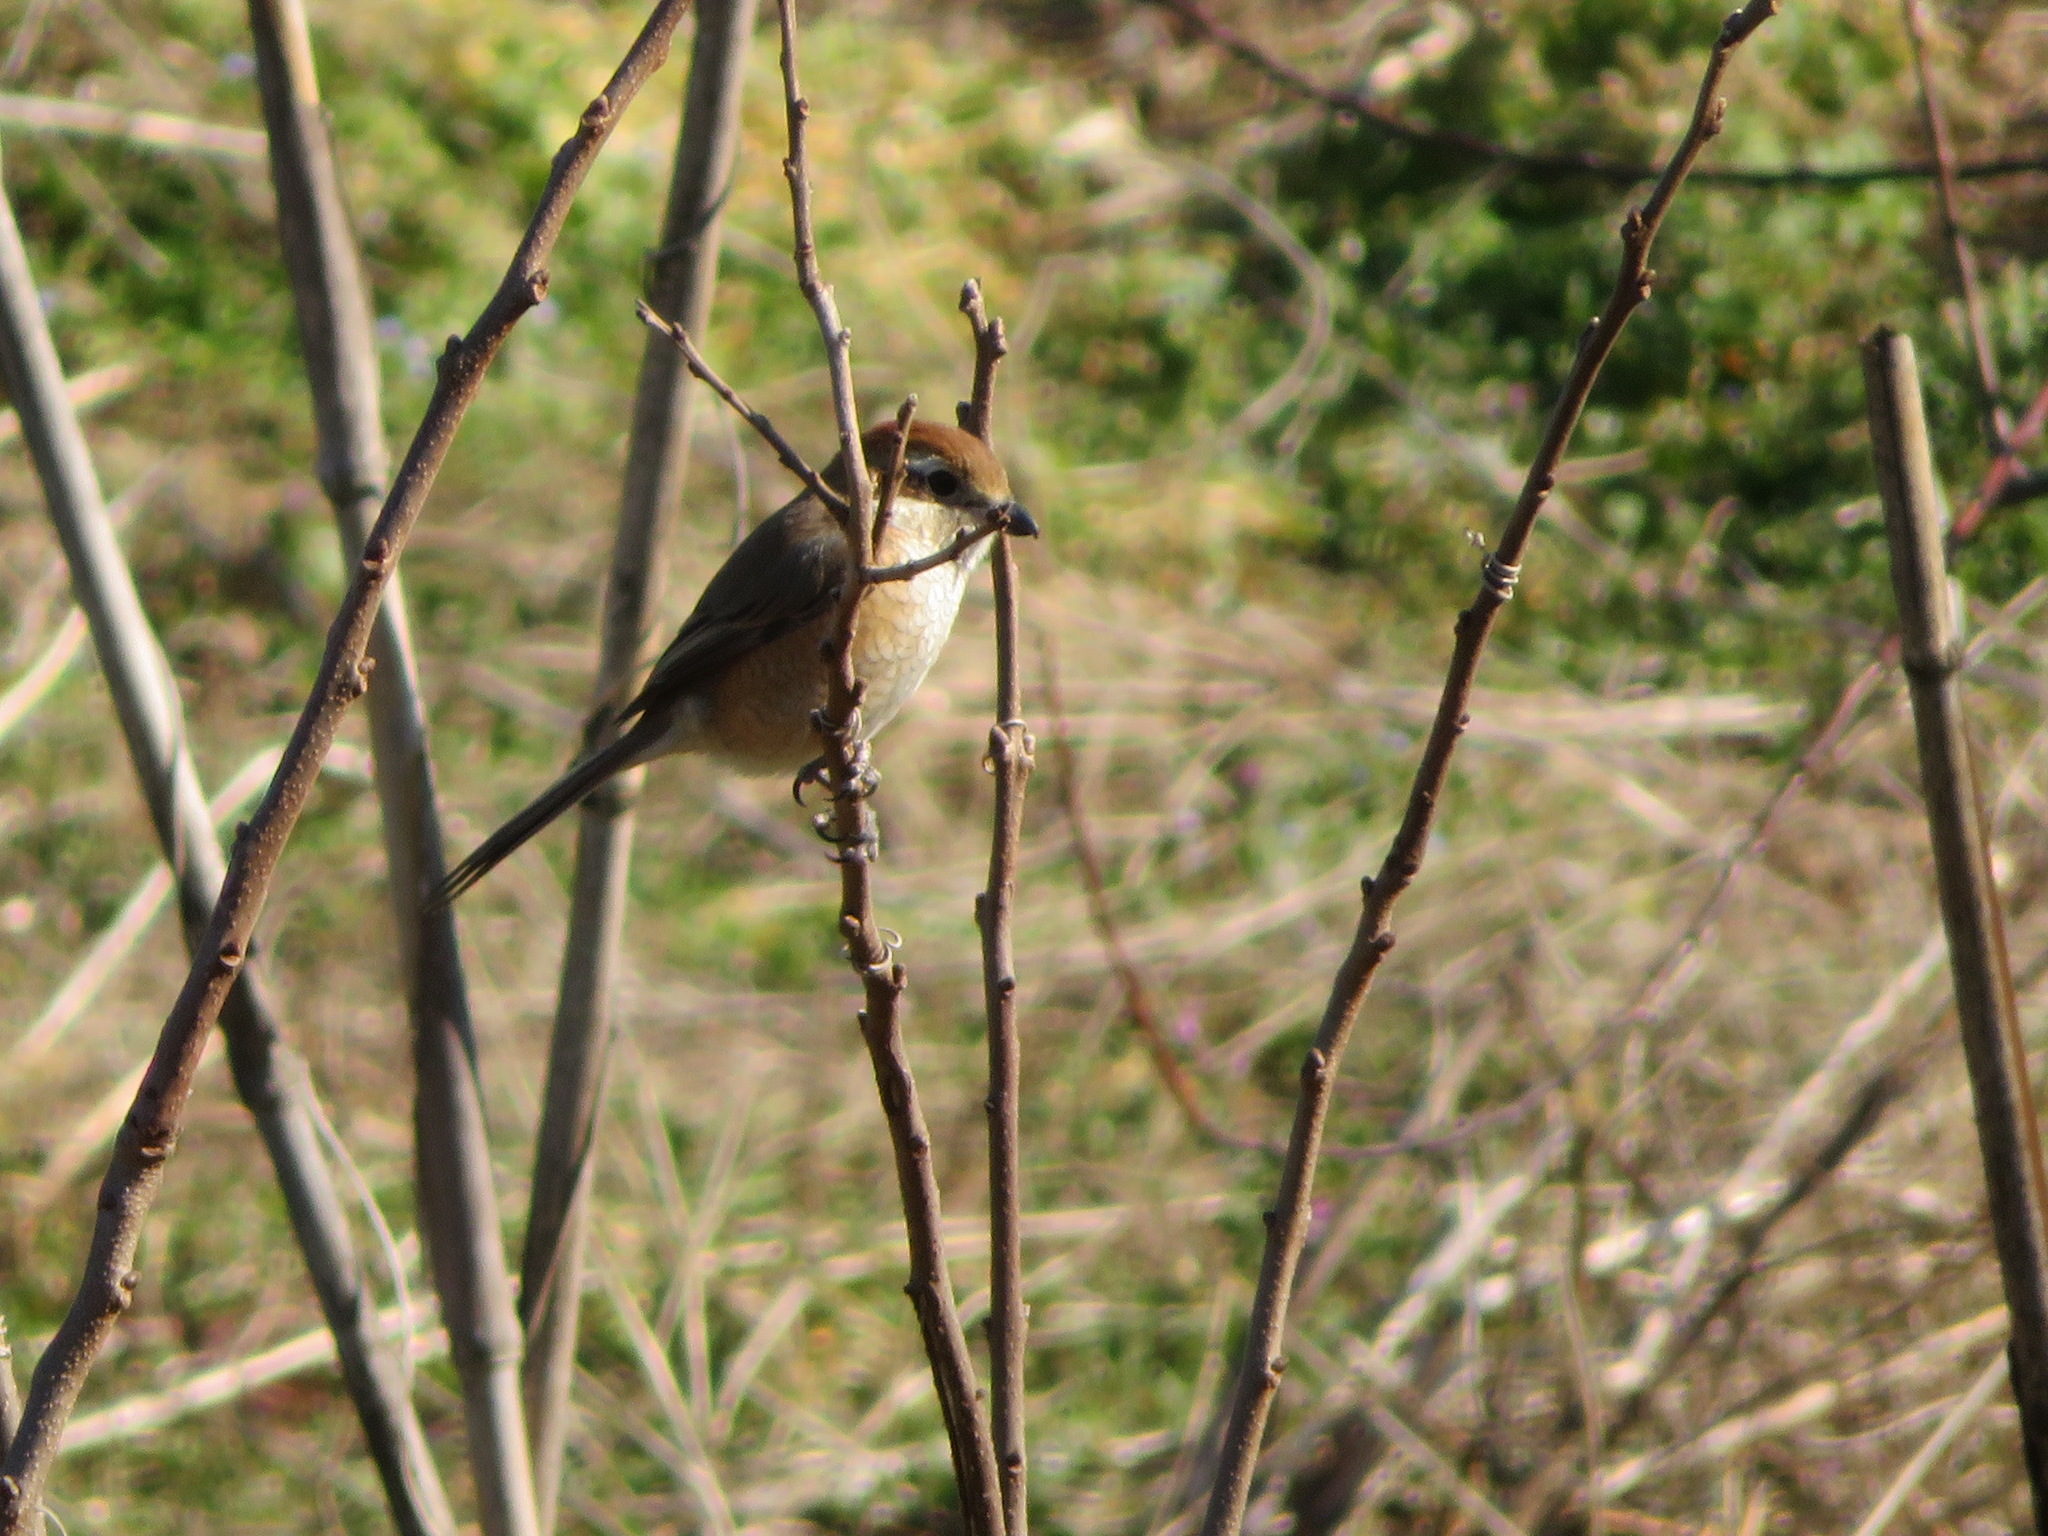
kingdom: Animalia
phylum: Chordata
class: Aves
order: Passeriformes
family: Laniidae
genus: Lanius
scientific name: Lanius bucephalus
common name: Bull-headed shrike
